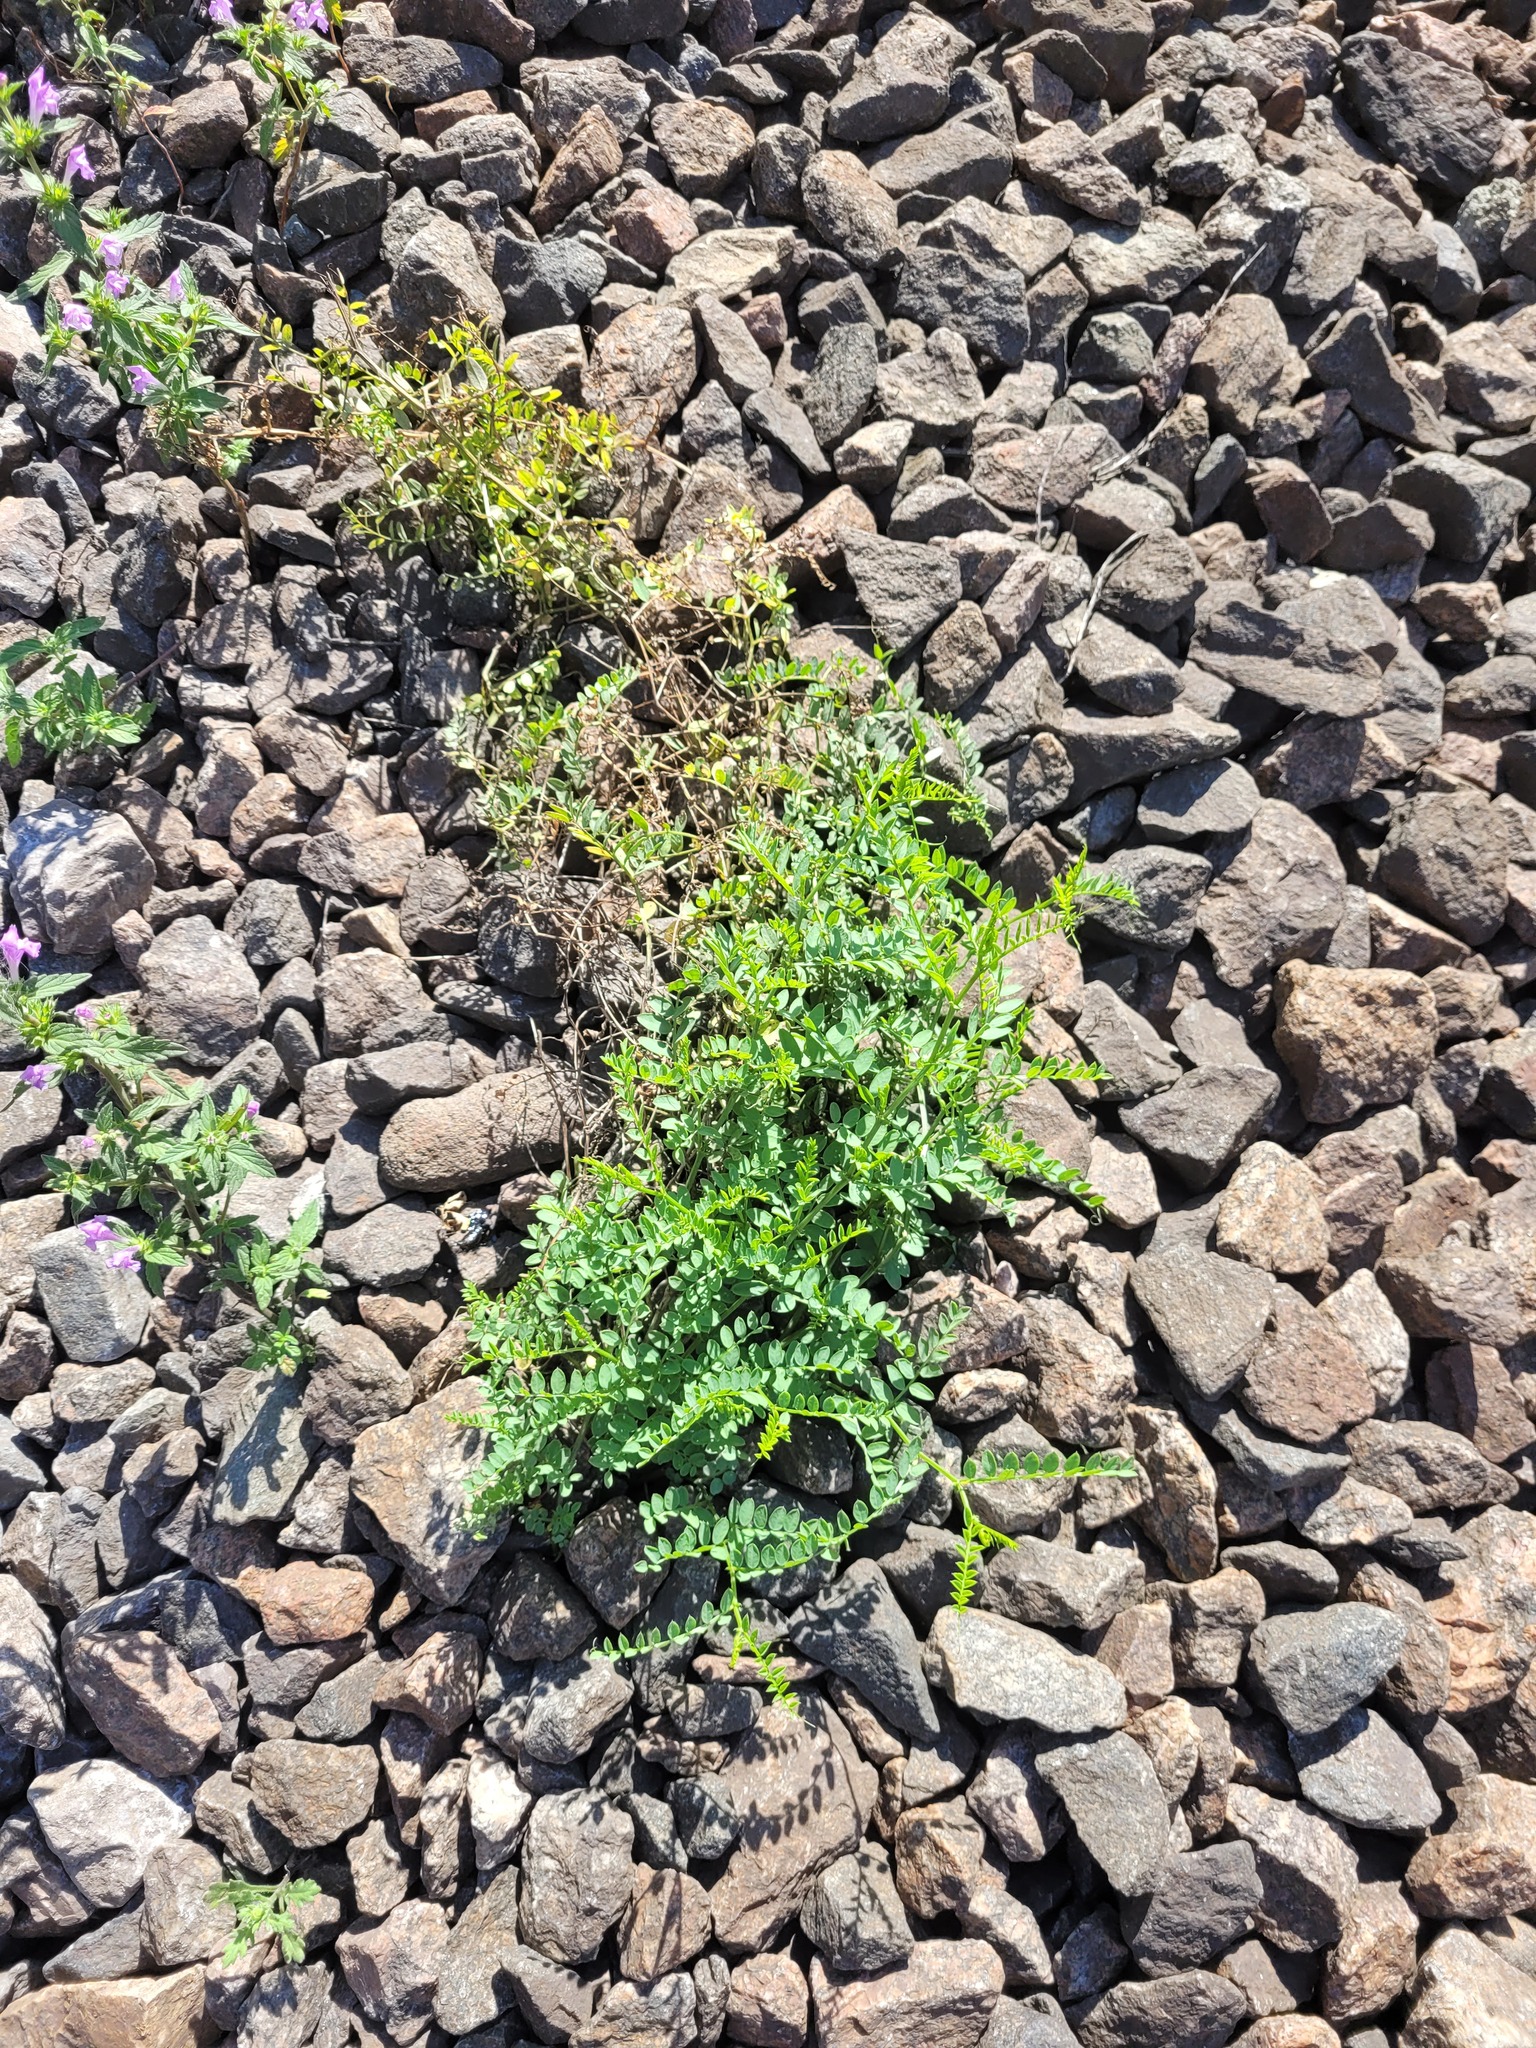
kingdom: Plantae
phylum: Tracheophyta
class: Magnoliopsida
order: Fabales
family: Fabaceae
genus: Vicia
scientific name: Vicia sylvatica
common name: Wood vetch
